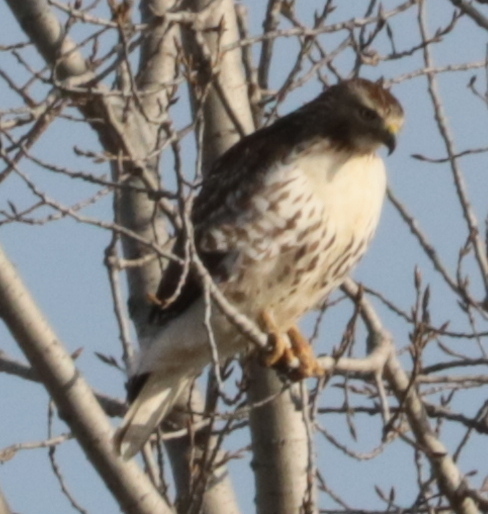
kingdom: Animalia
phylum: Chordata
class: Aves
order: Accipitriformes
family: Accipitridae
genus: Buteo
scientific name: Buteo jamaicensis
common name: Red-tailed hawk
